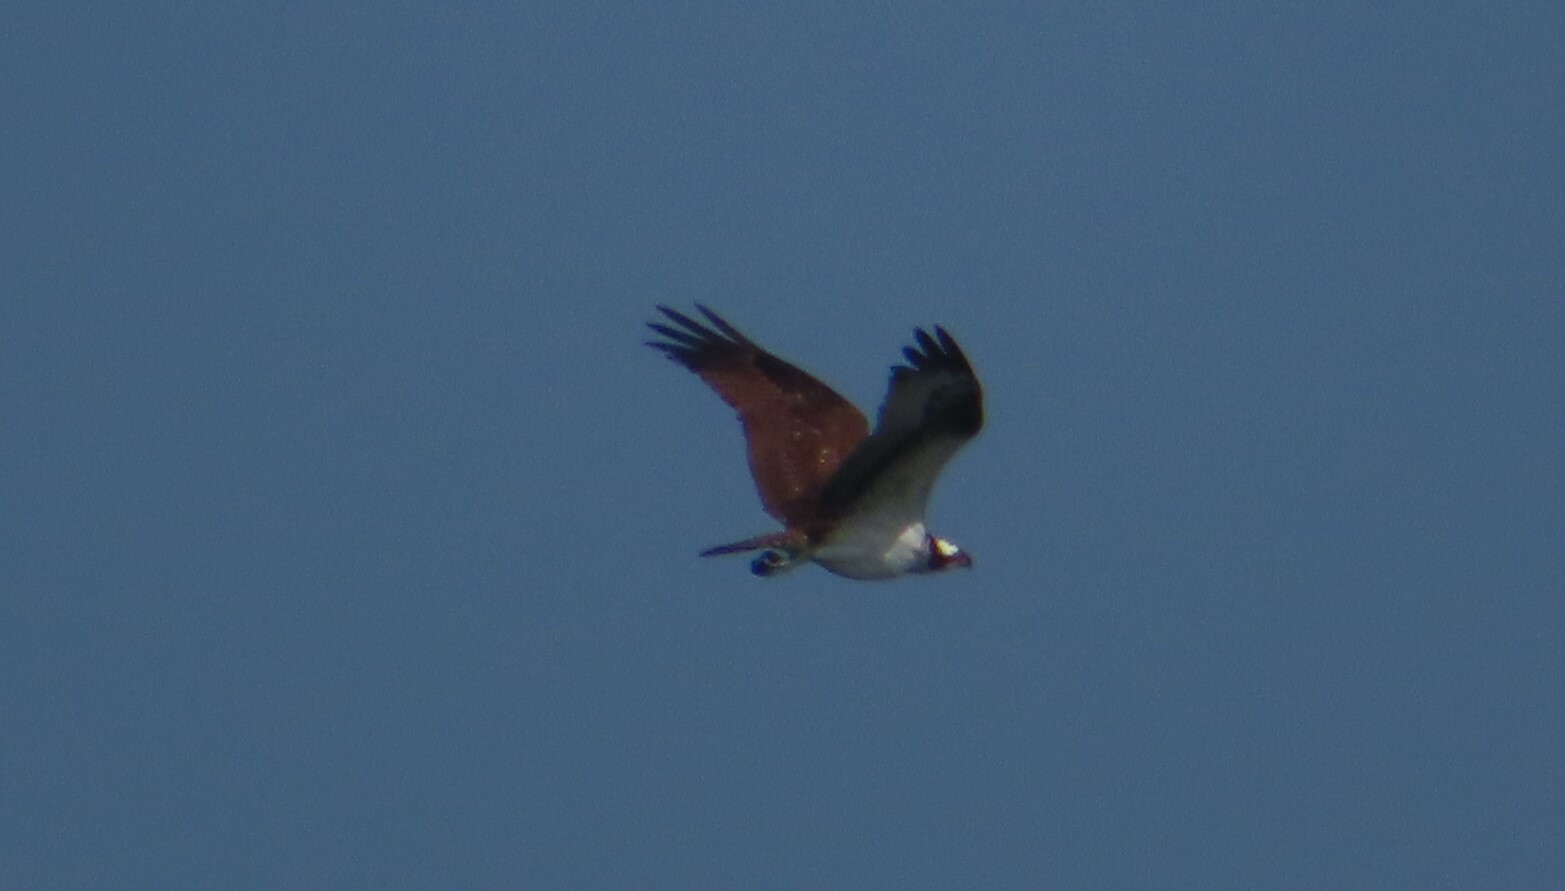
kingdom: Animalia
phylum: Chordata
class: Aves
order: Accipitriformes
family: Pandionidae
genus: Pandion
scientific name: Pandion haliaetus
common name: Osprey
